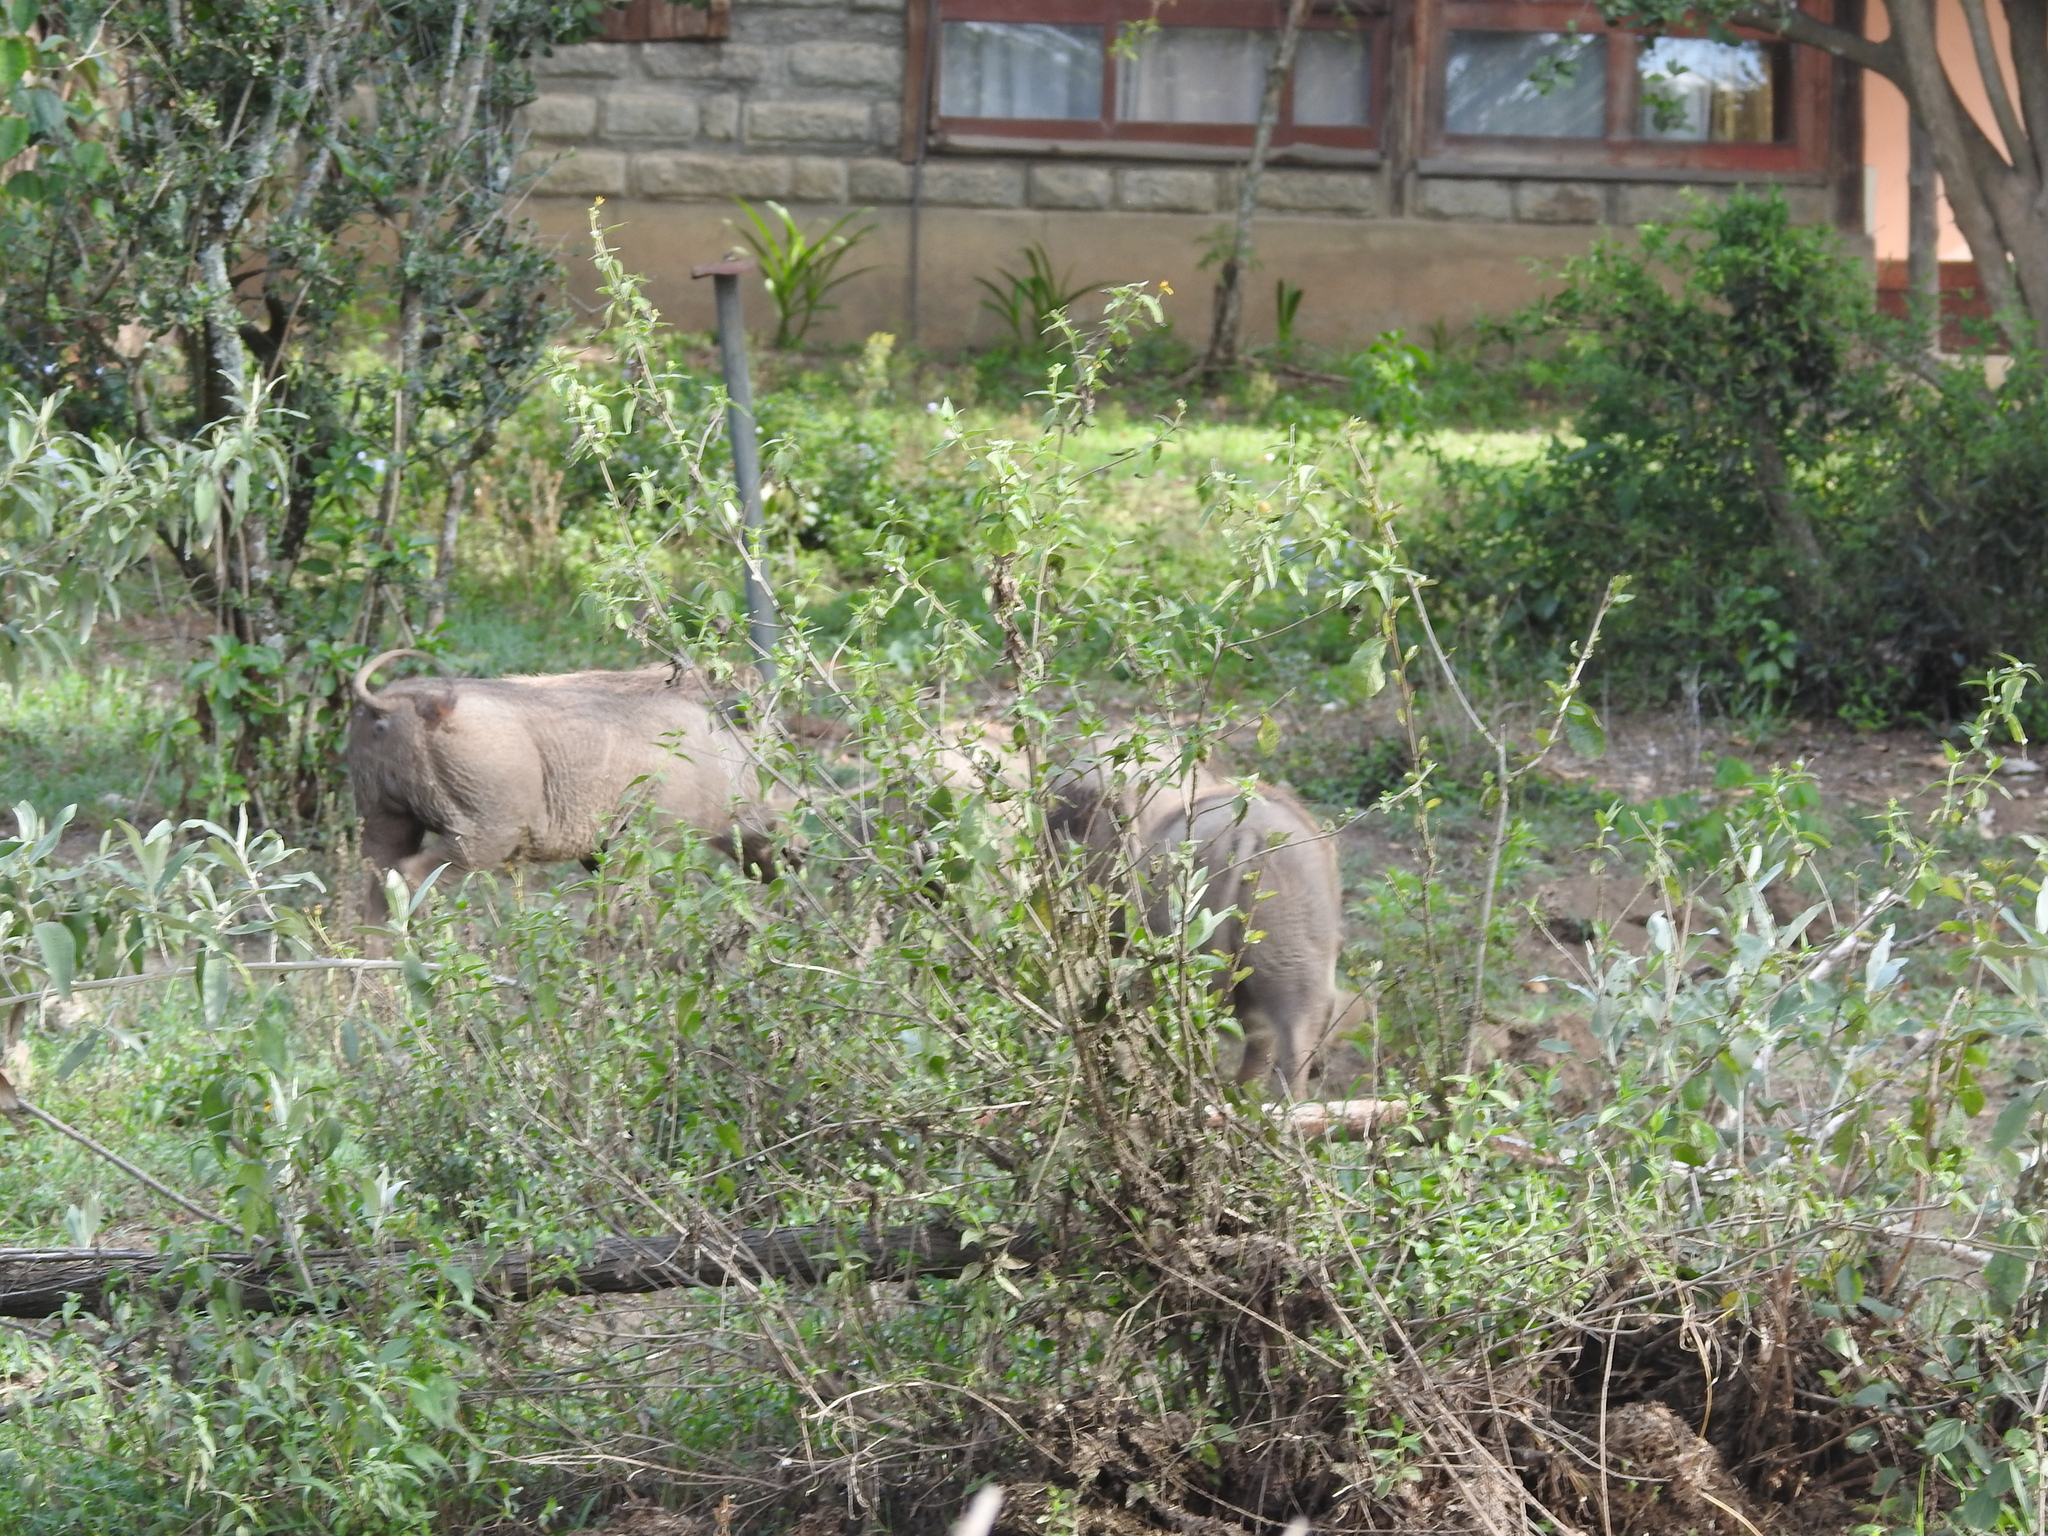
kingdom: Animalia
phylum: Chordata
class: Mammalia
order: Artiodactyla
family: Suidae
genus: Phacochoerus
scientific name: Phacochoerus africanus
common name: Common warthog
